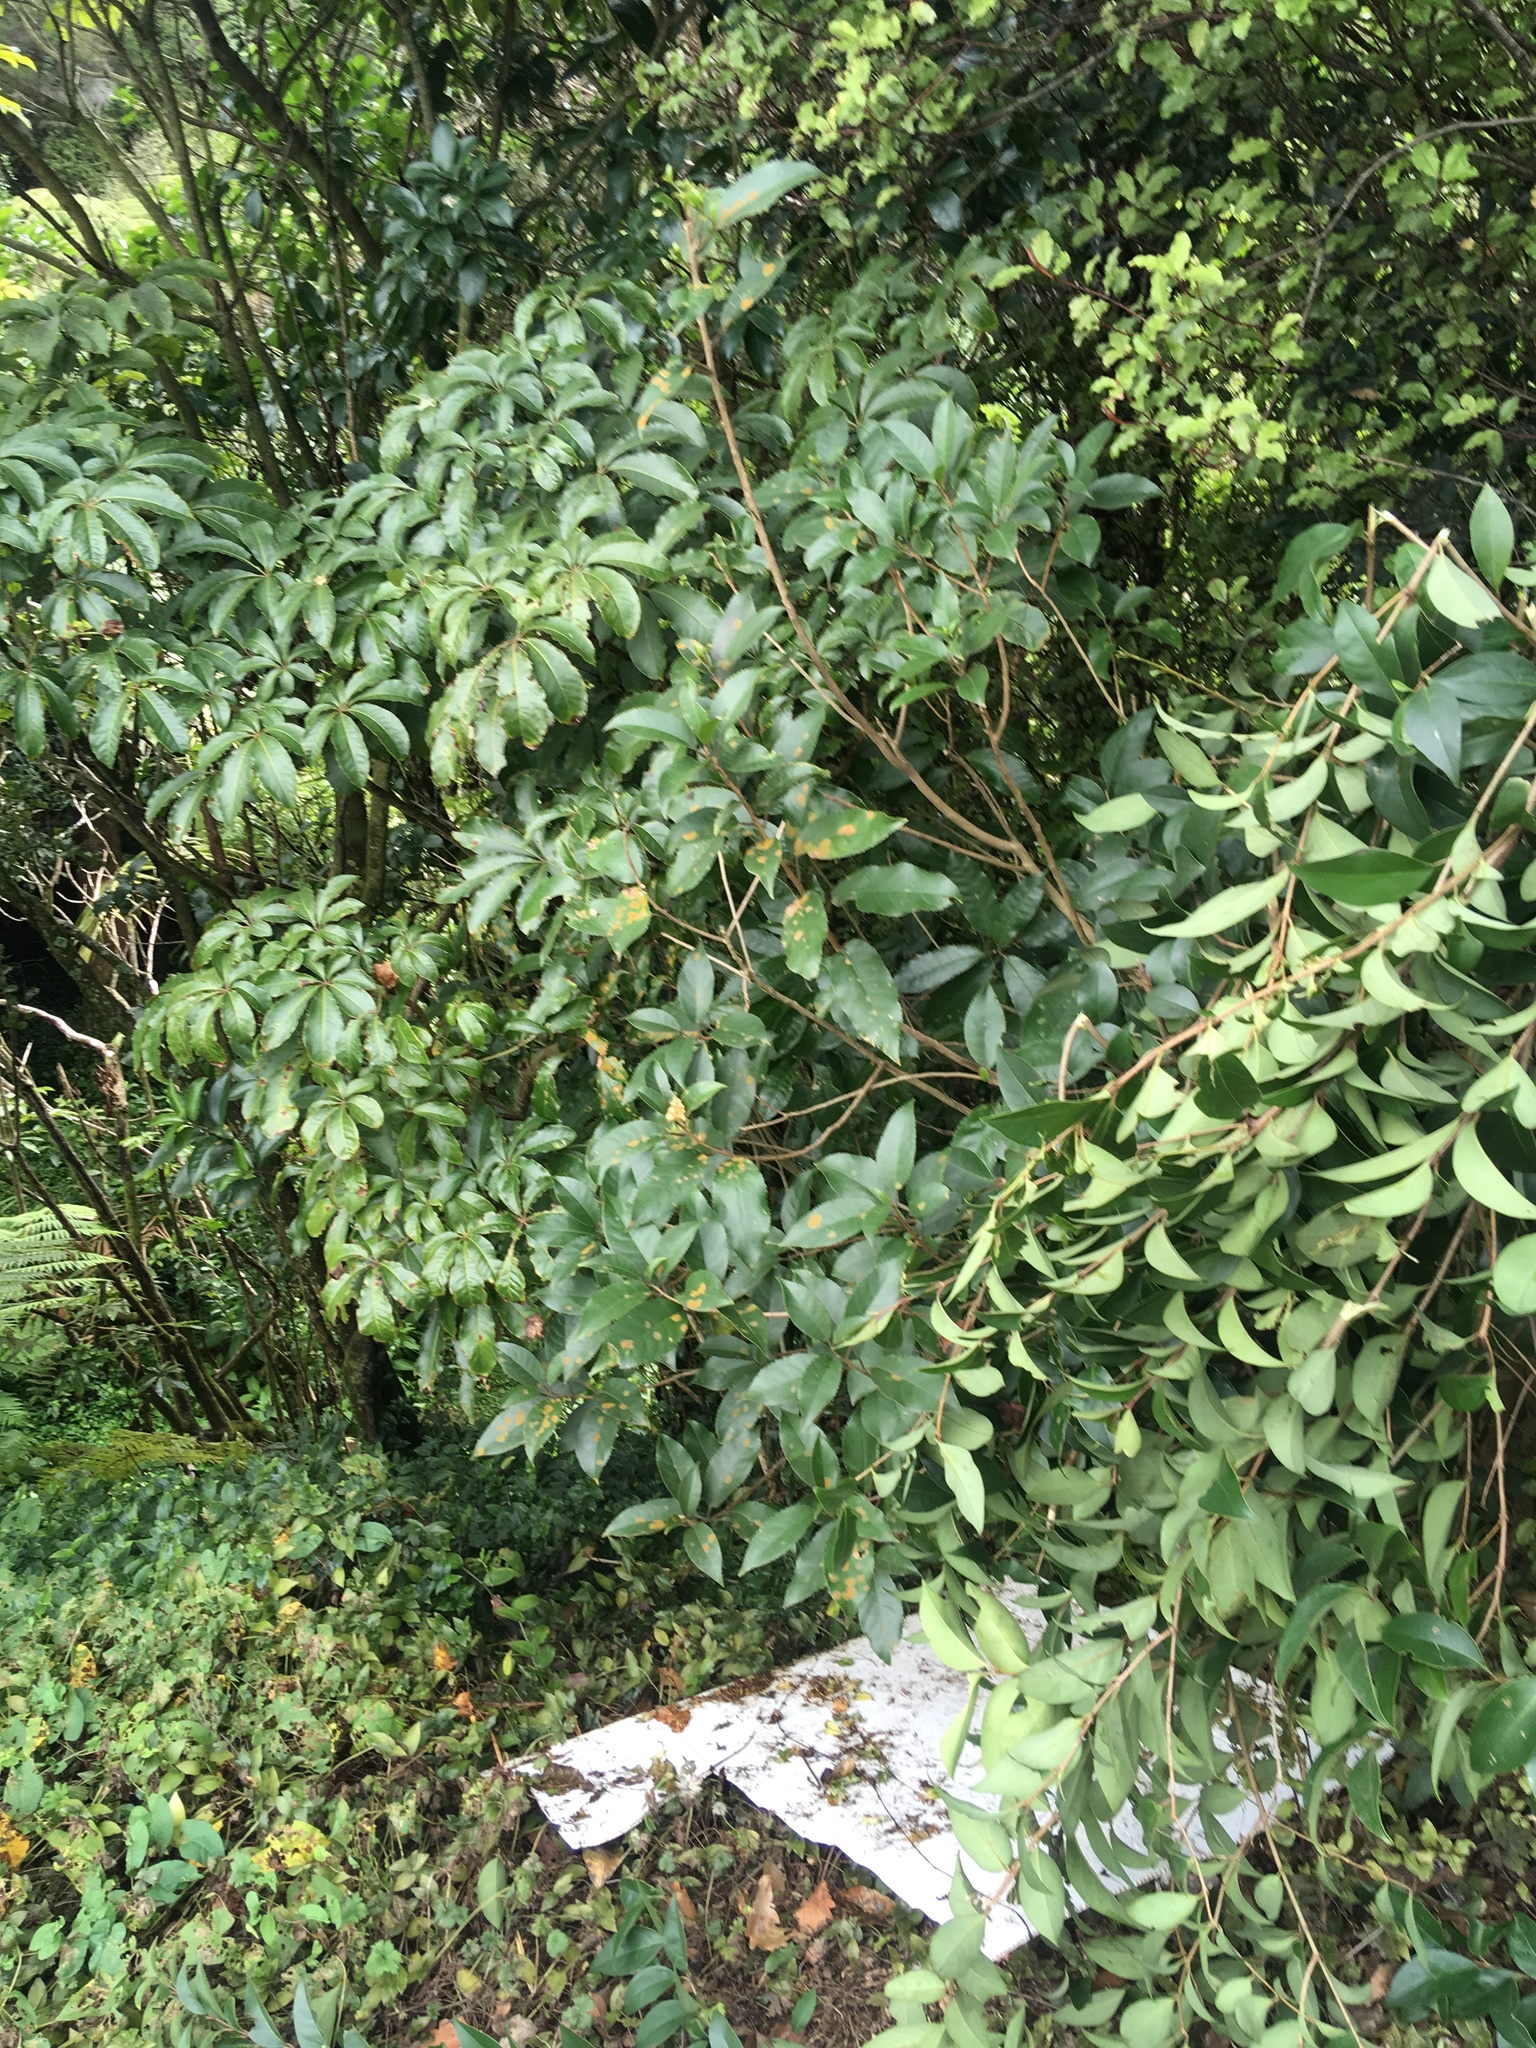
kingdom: Plantae
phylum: Tracheophyta
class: Magnoliopsida
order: Lamiales
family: Oleaceae
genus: Ligustrum
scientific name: Ligustrum lucidum
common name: Glossy privet
